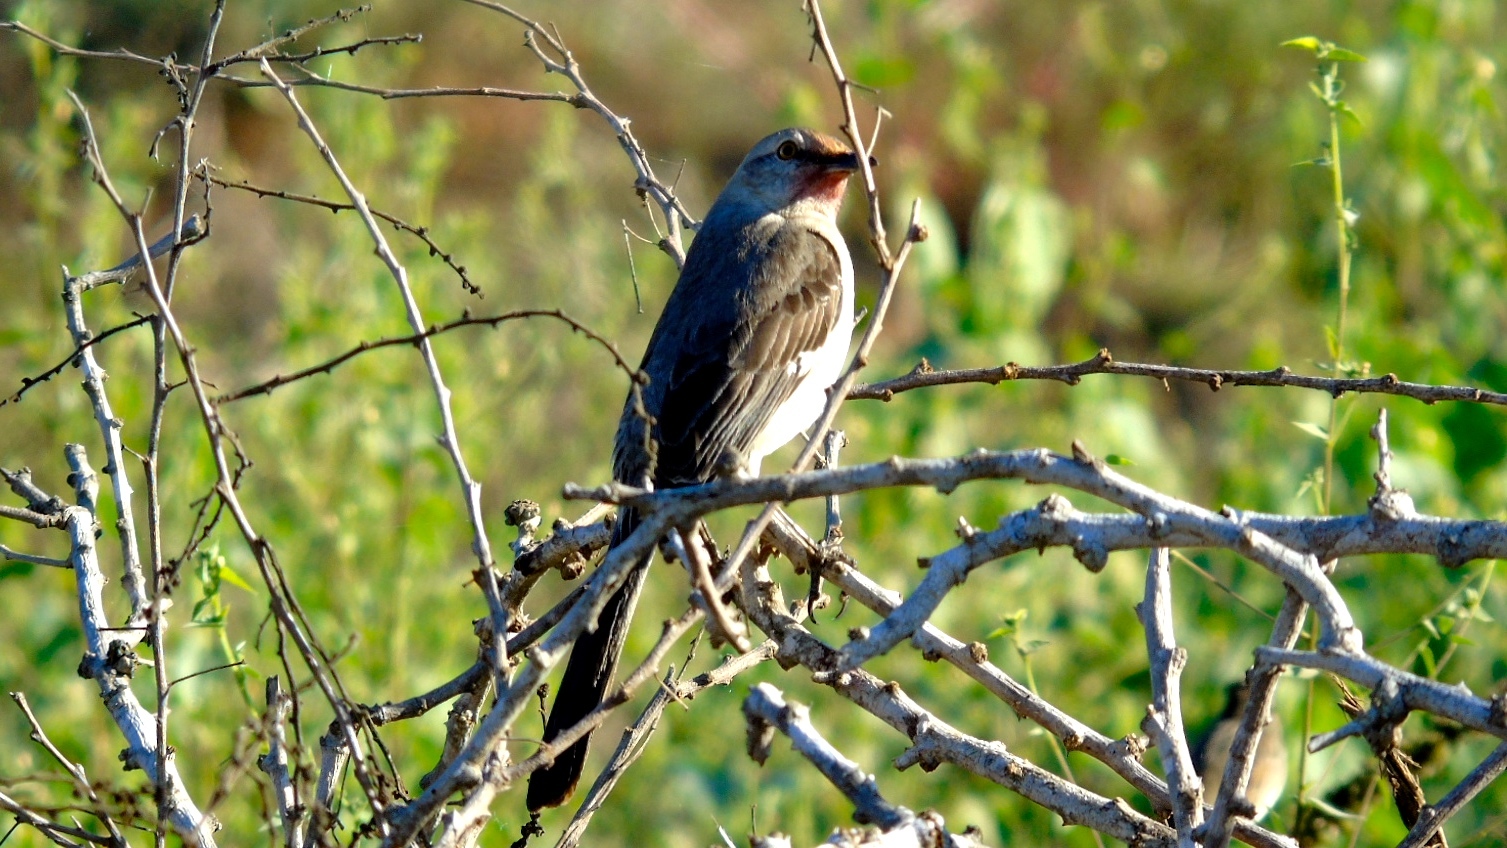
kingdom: Animalia
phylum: Chordata
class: Aves
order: Passeriformes
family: Mimidae
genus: Mimus
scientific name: Mimus polyglottos
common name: Northern mockingbird
